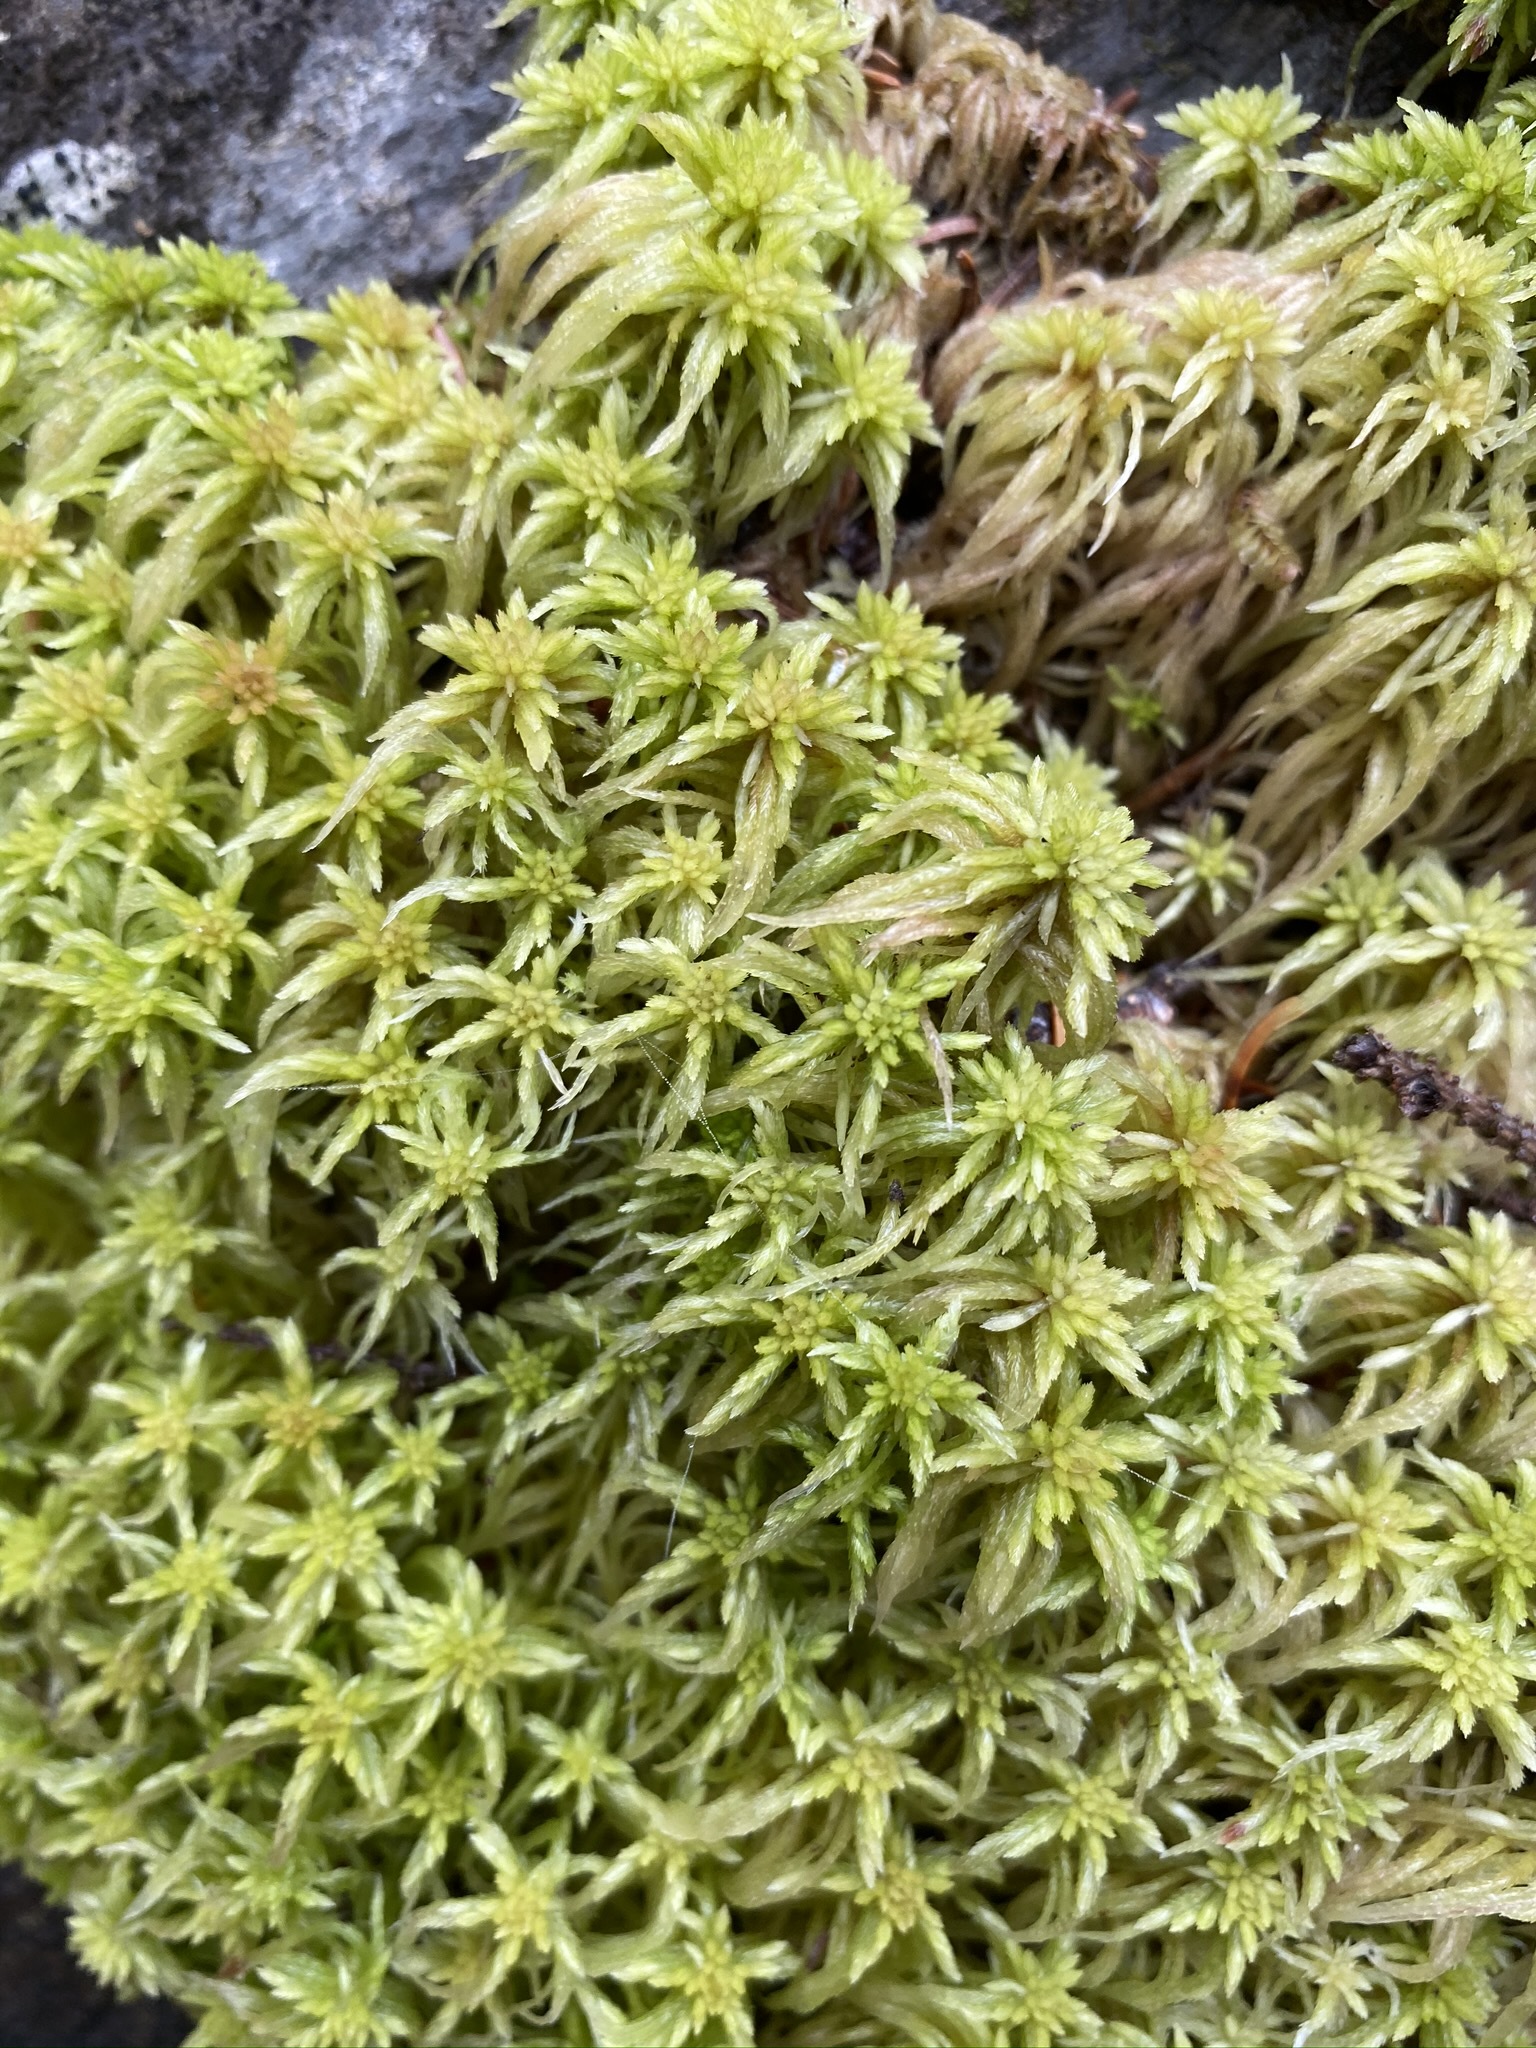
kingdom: Plantae
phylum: Bryophyta
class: Sphagnopsida
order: Sphagnales
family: Sphagnaceae
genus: Sphagnum
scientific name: Sphagnum girgensohnii
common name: Girgensohn's peat moss
